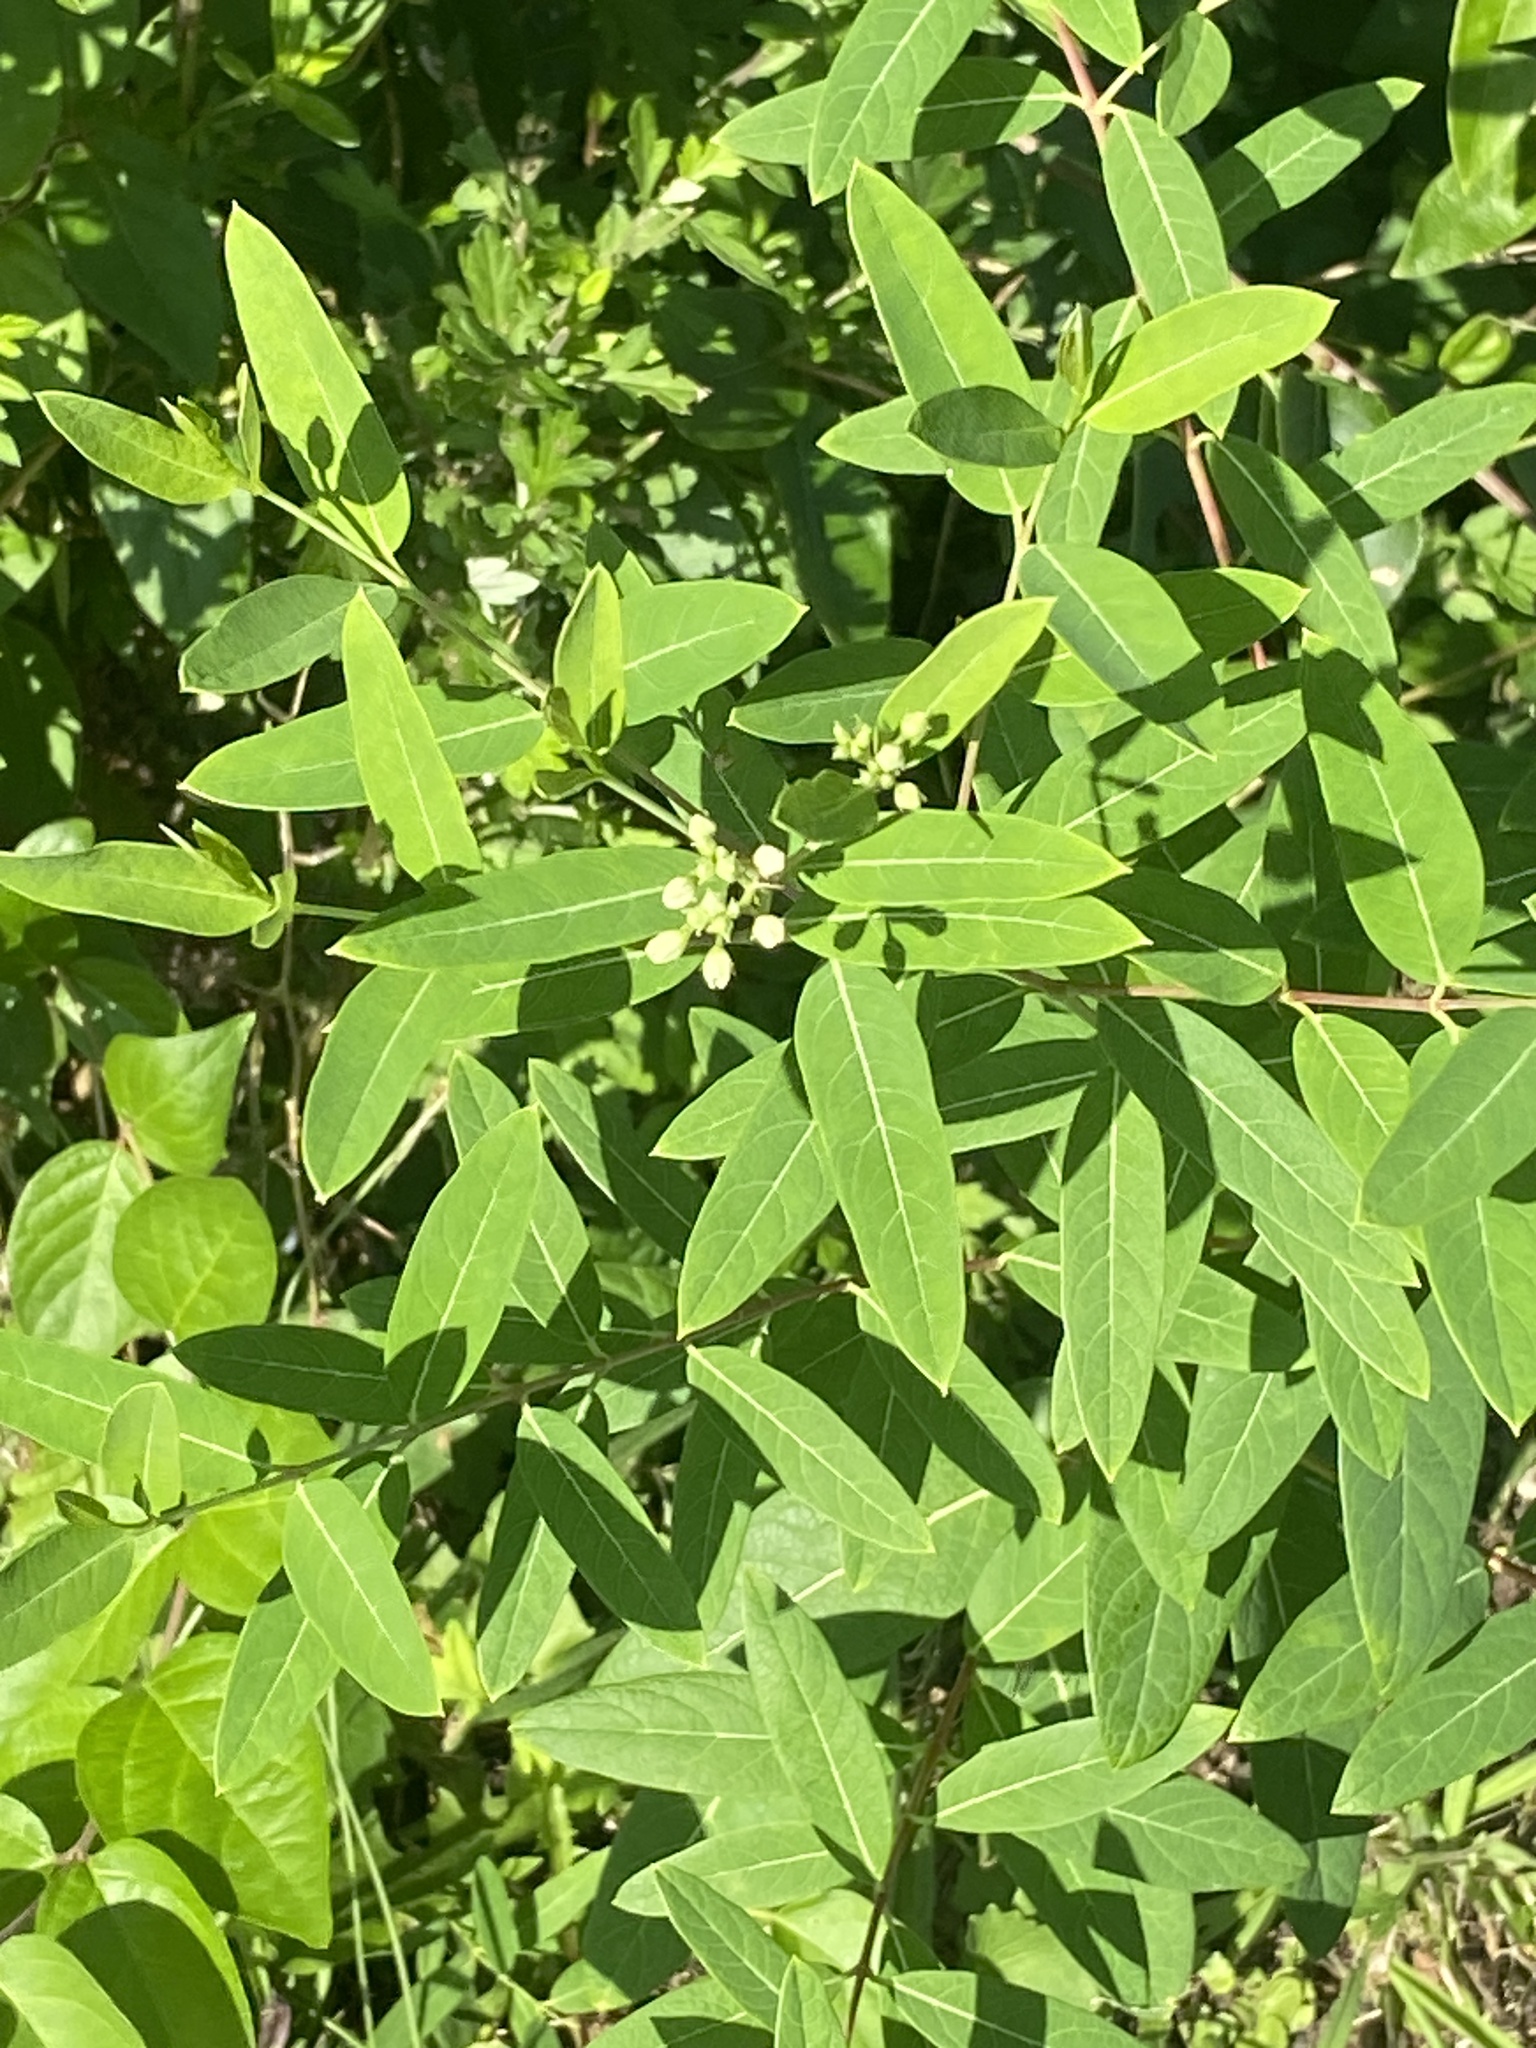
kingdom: Plantae
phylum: Tracheophyta
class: Magnoliopsida
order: Gentianales
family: Apocynaceae
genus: Apocynum
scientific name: Apocynum cannabinum
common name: Hemp dogbane
